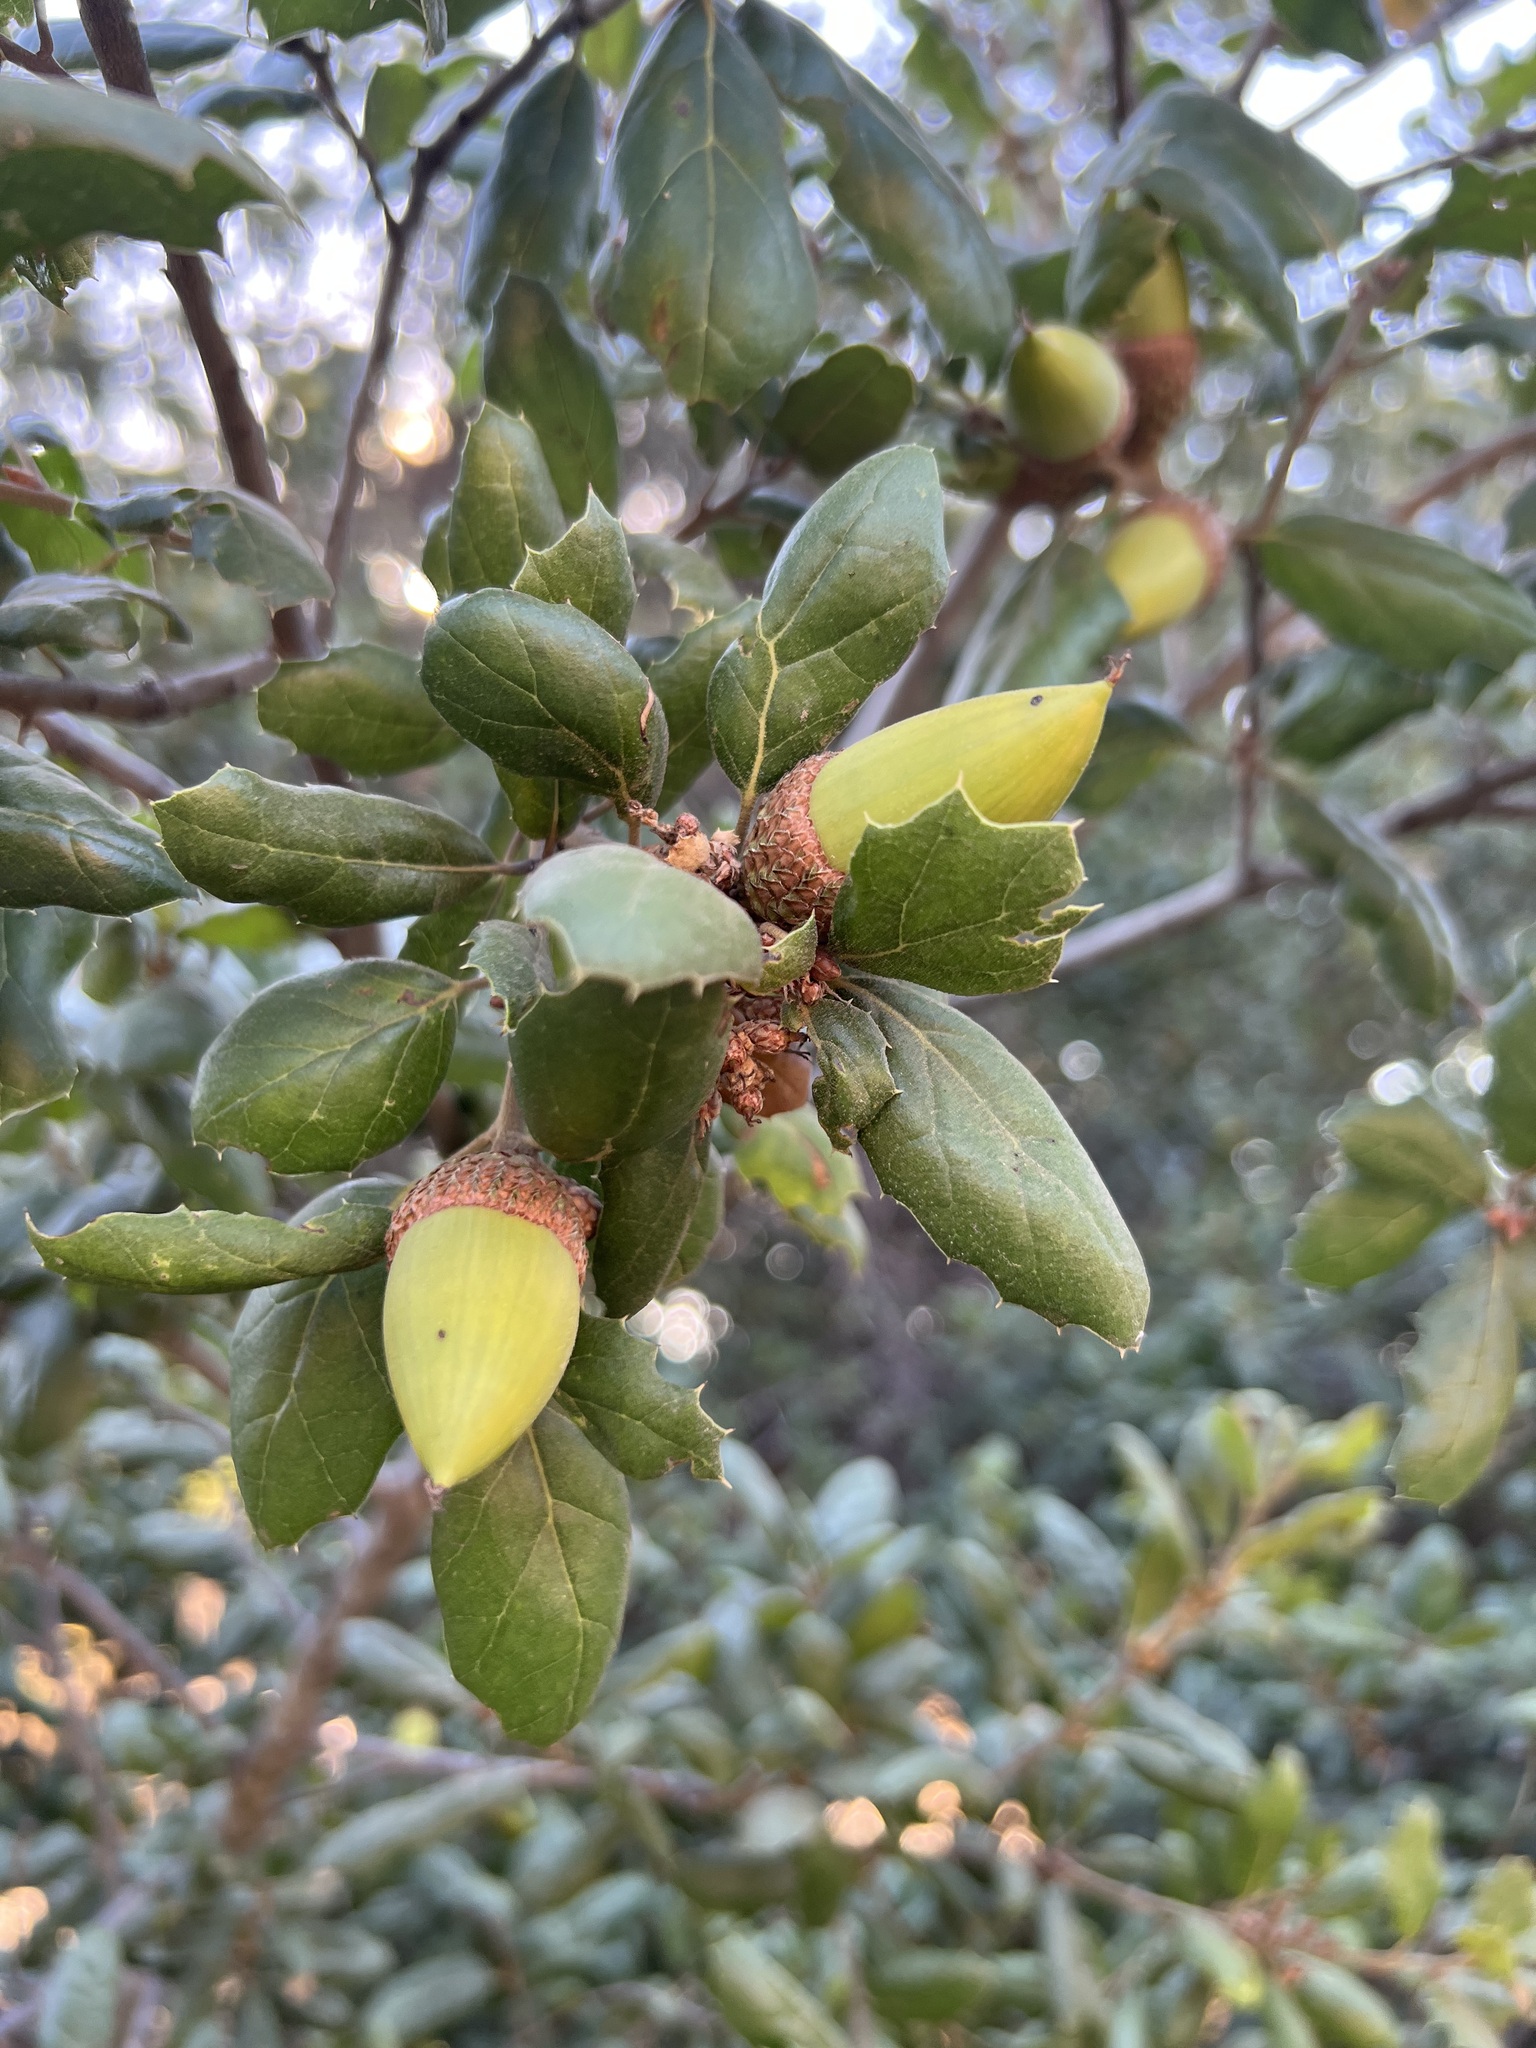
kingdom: Plantae
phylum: Tracheophyta
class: Magnoliopsida
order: Fagales
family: Fagaceae
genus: Quercus
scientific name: Quercus agrifolia
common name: California live oak
